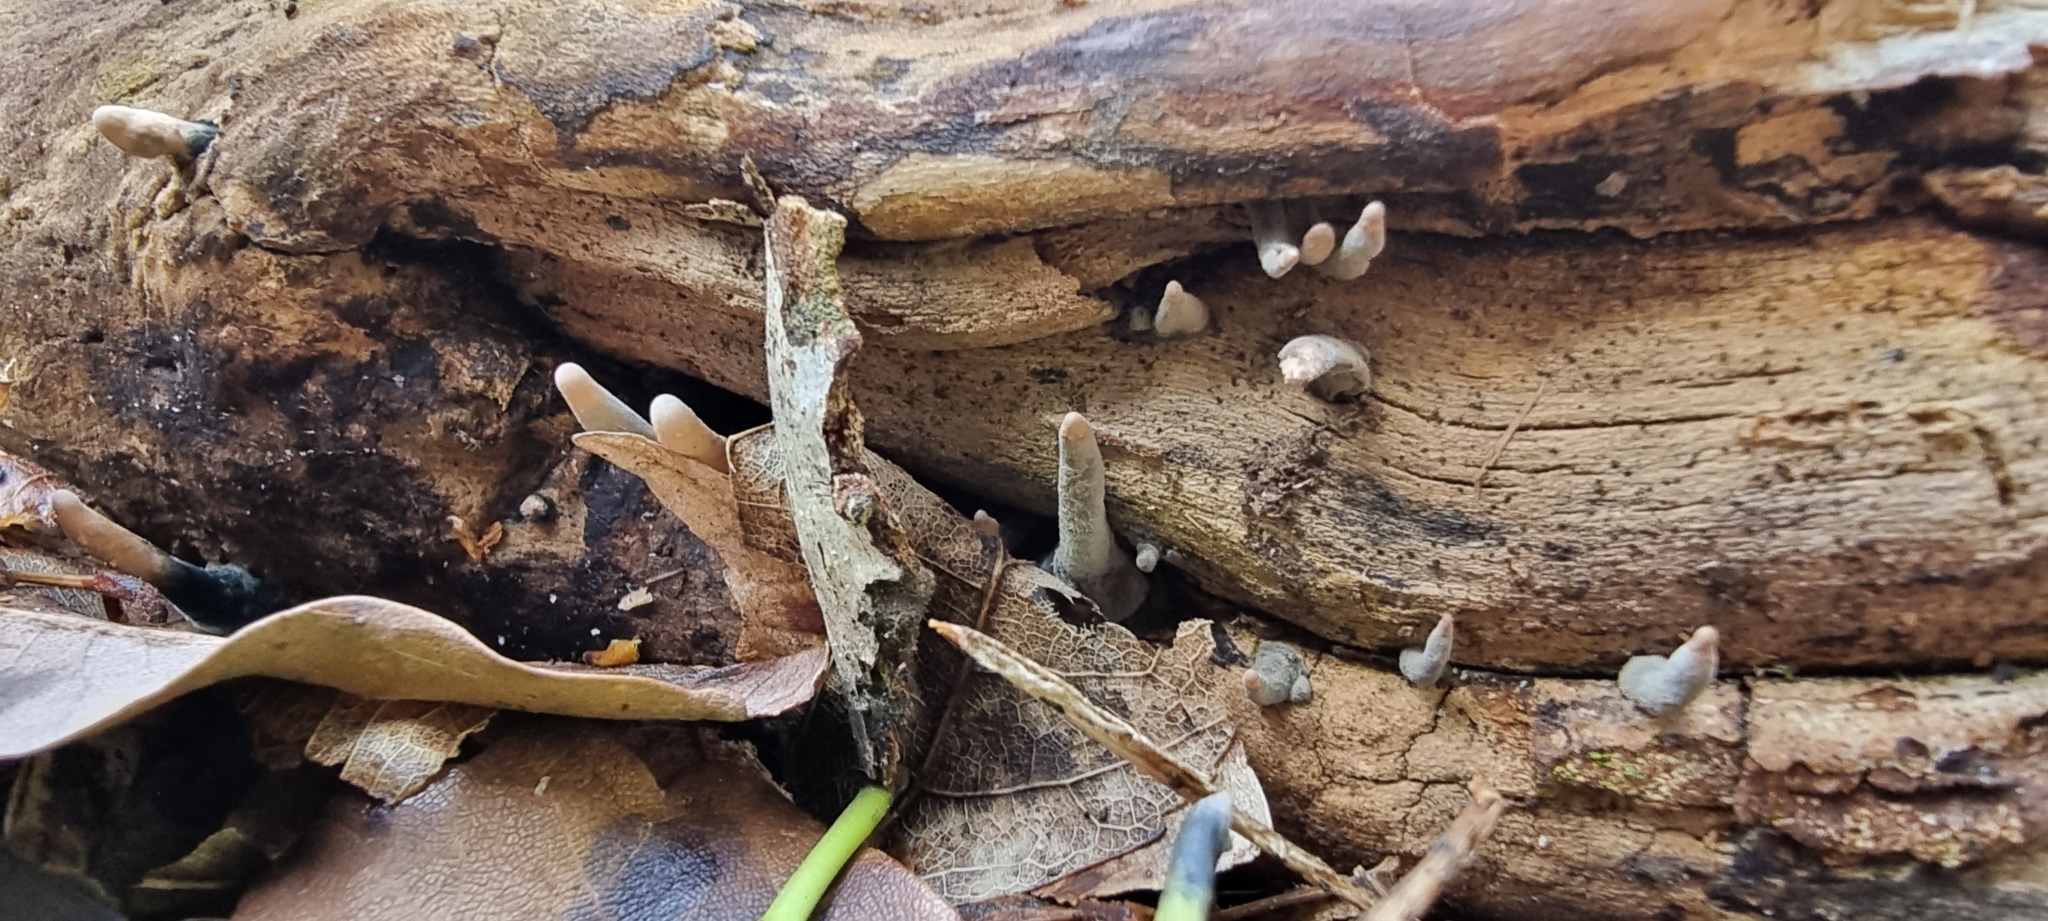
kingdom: Fungi
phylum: Ascomycota
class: Sordariomycetes
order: Xylariales
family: Xylariaceae
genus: Xylaria
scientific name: Xylaria polymorpha
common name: Dead man's fingers
